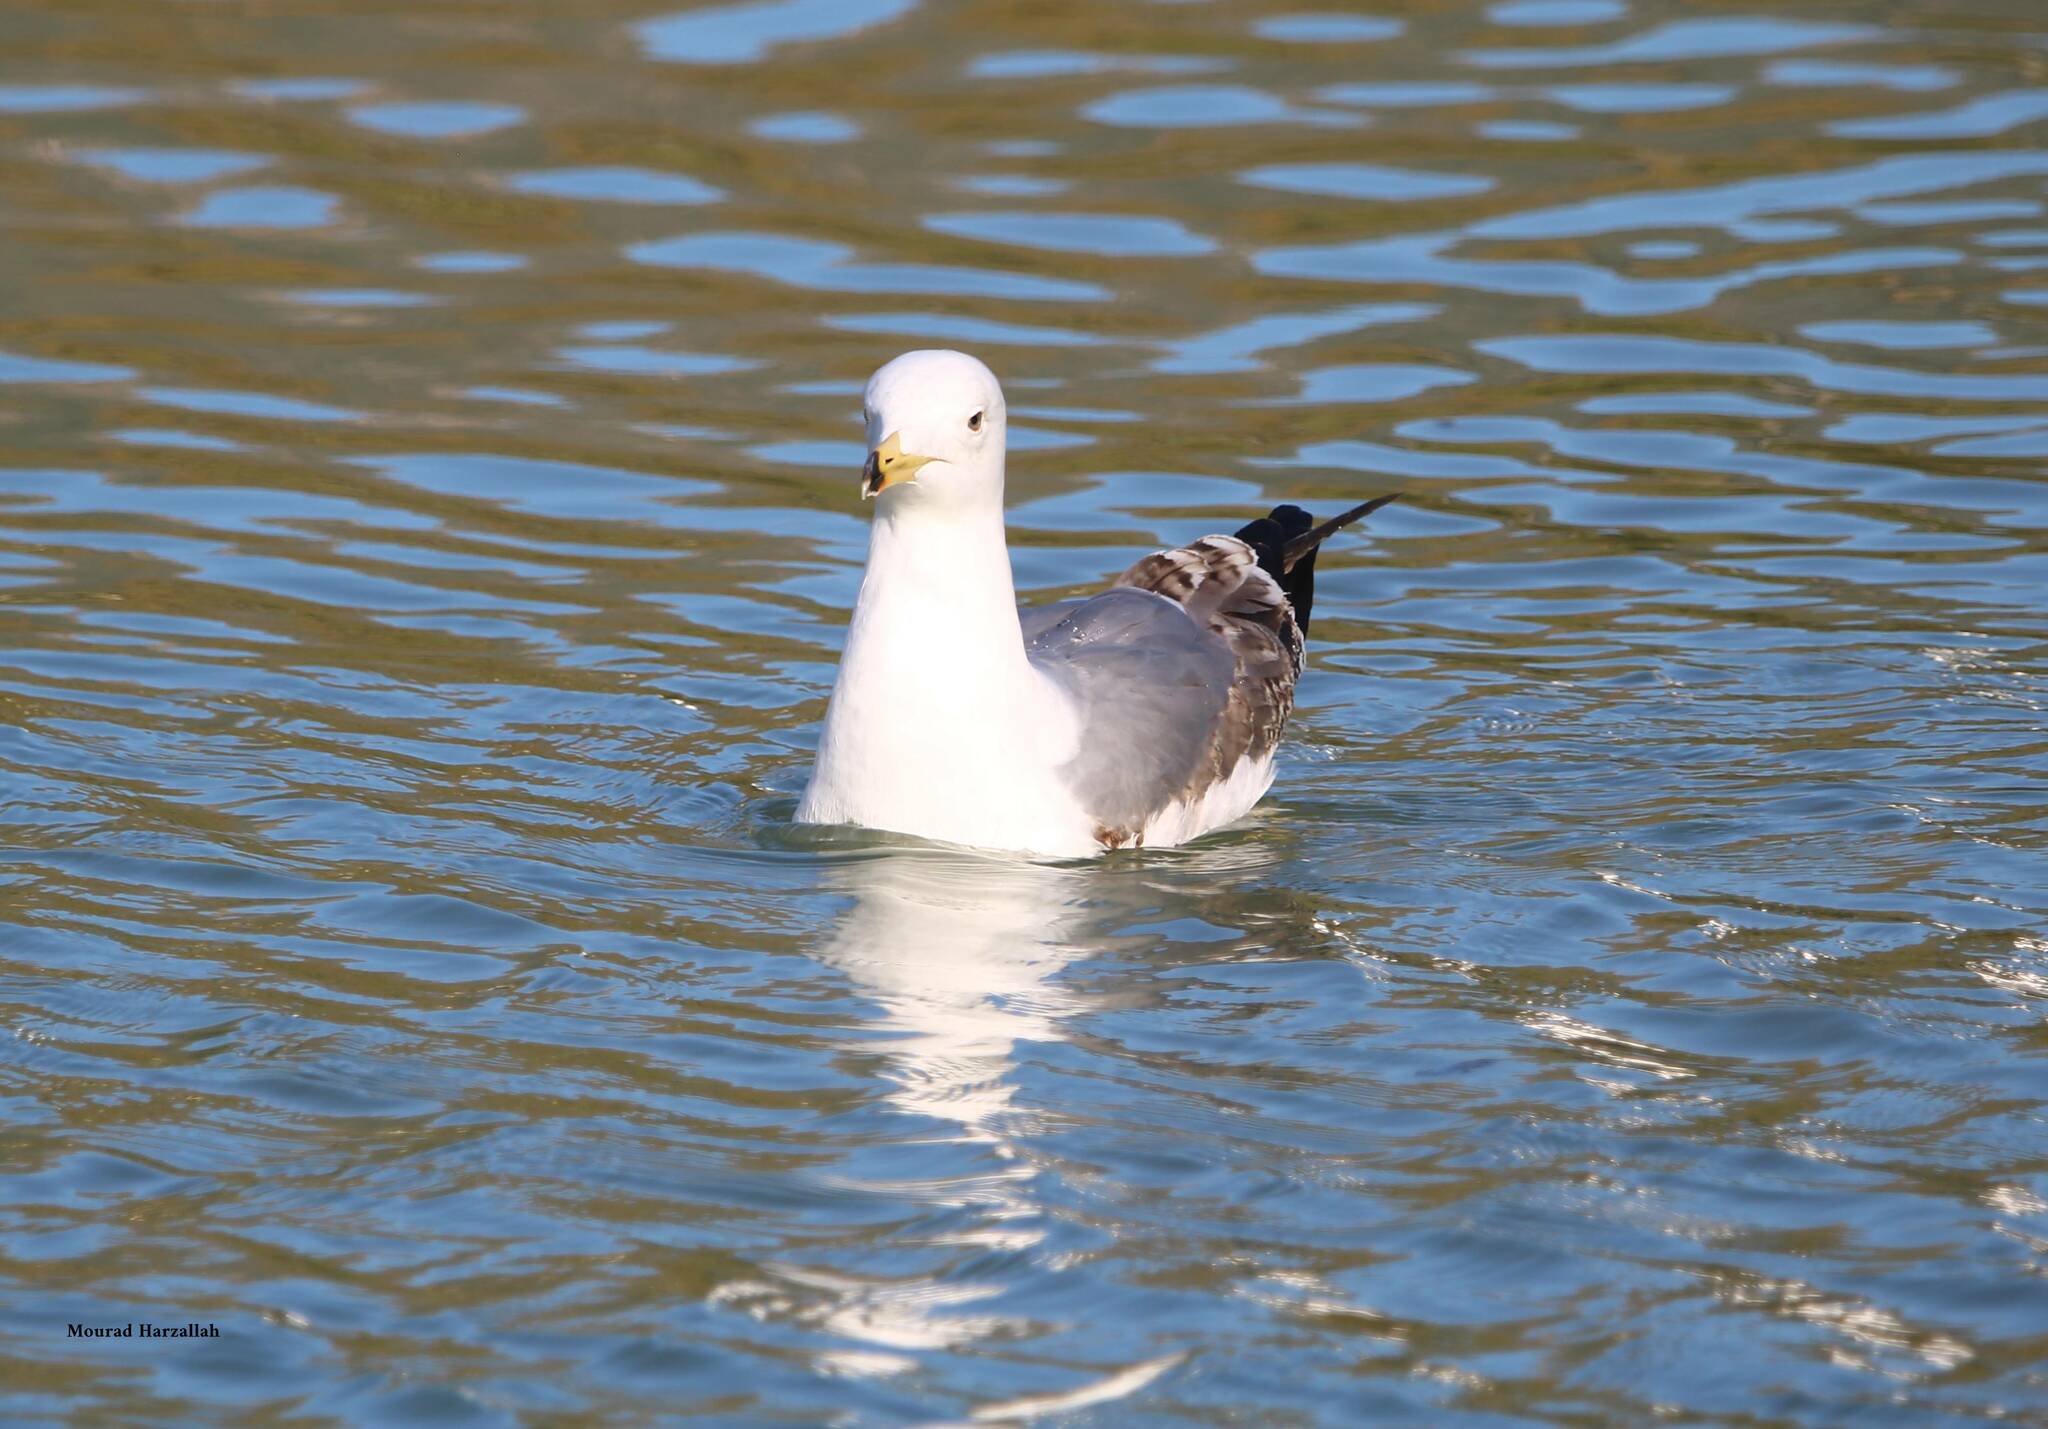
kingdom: Animalia
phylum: Chordata
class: Aves
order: Charadriiformes
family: Laridae
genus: Larus
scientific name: Larus michahellis
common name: Yellow-legged gull
